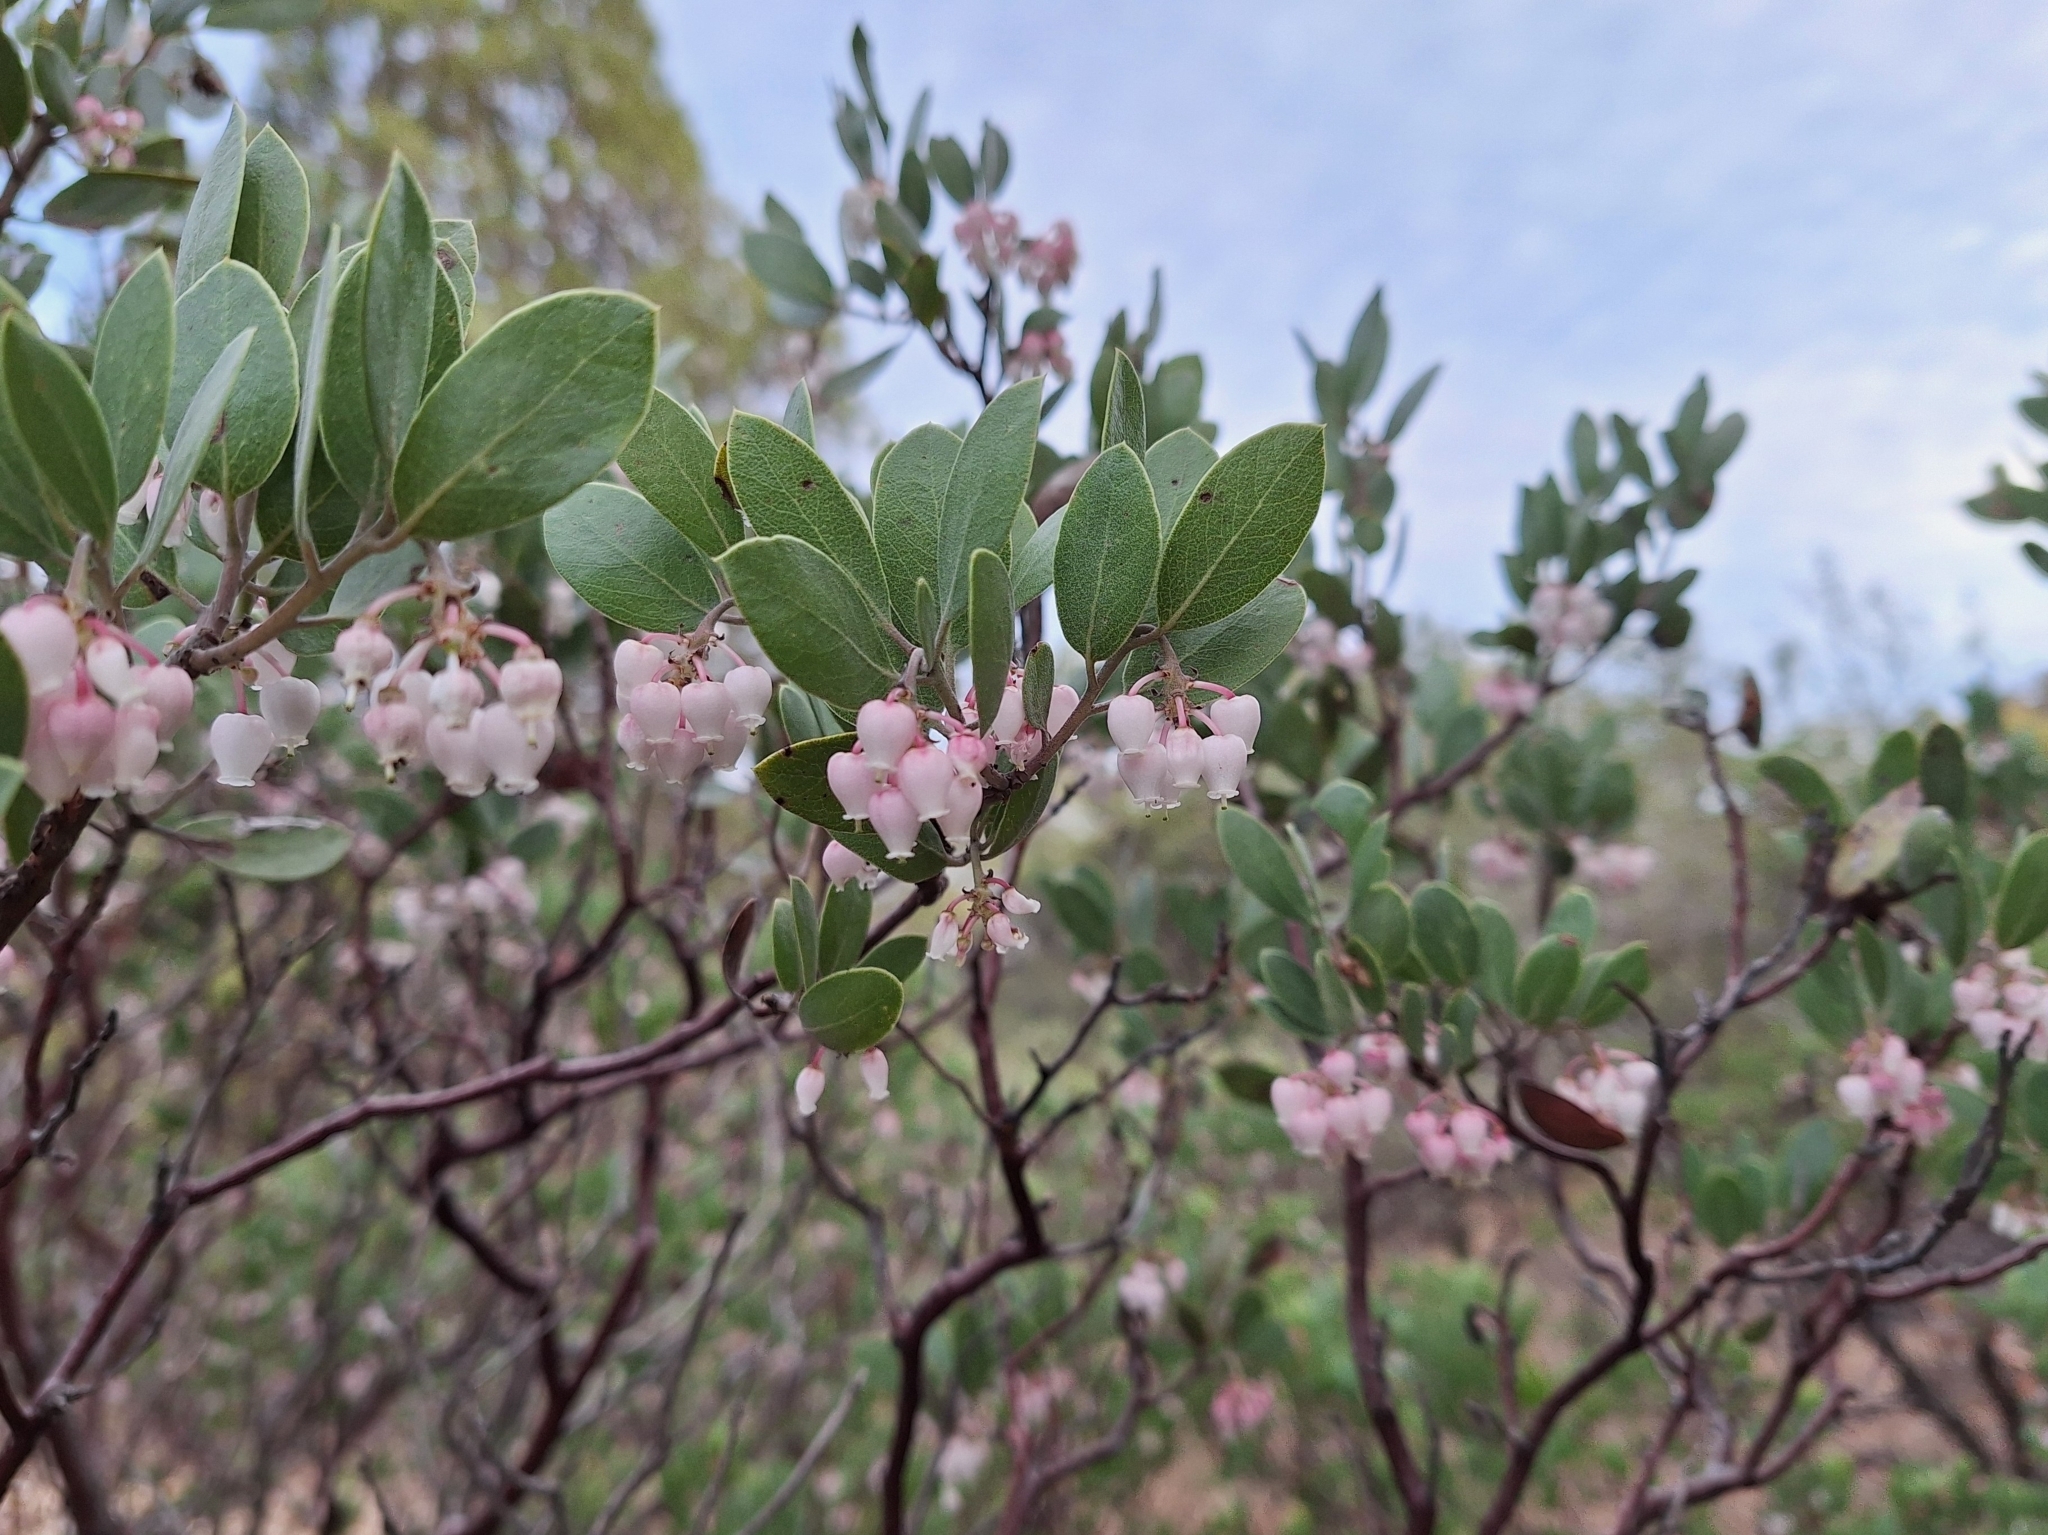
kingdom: Plantae
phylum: Tracheophyta
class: Magnoliopsida
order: Ericales
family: Ericaceae
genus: Arctostaphylos
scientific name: Arctostaphylos pungens
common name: Mexican manzanita
